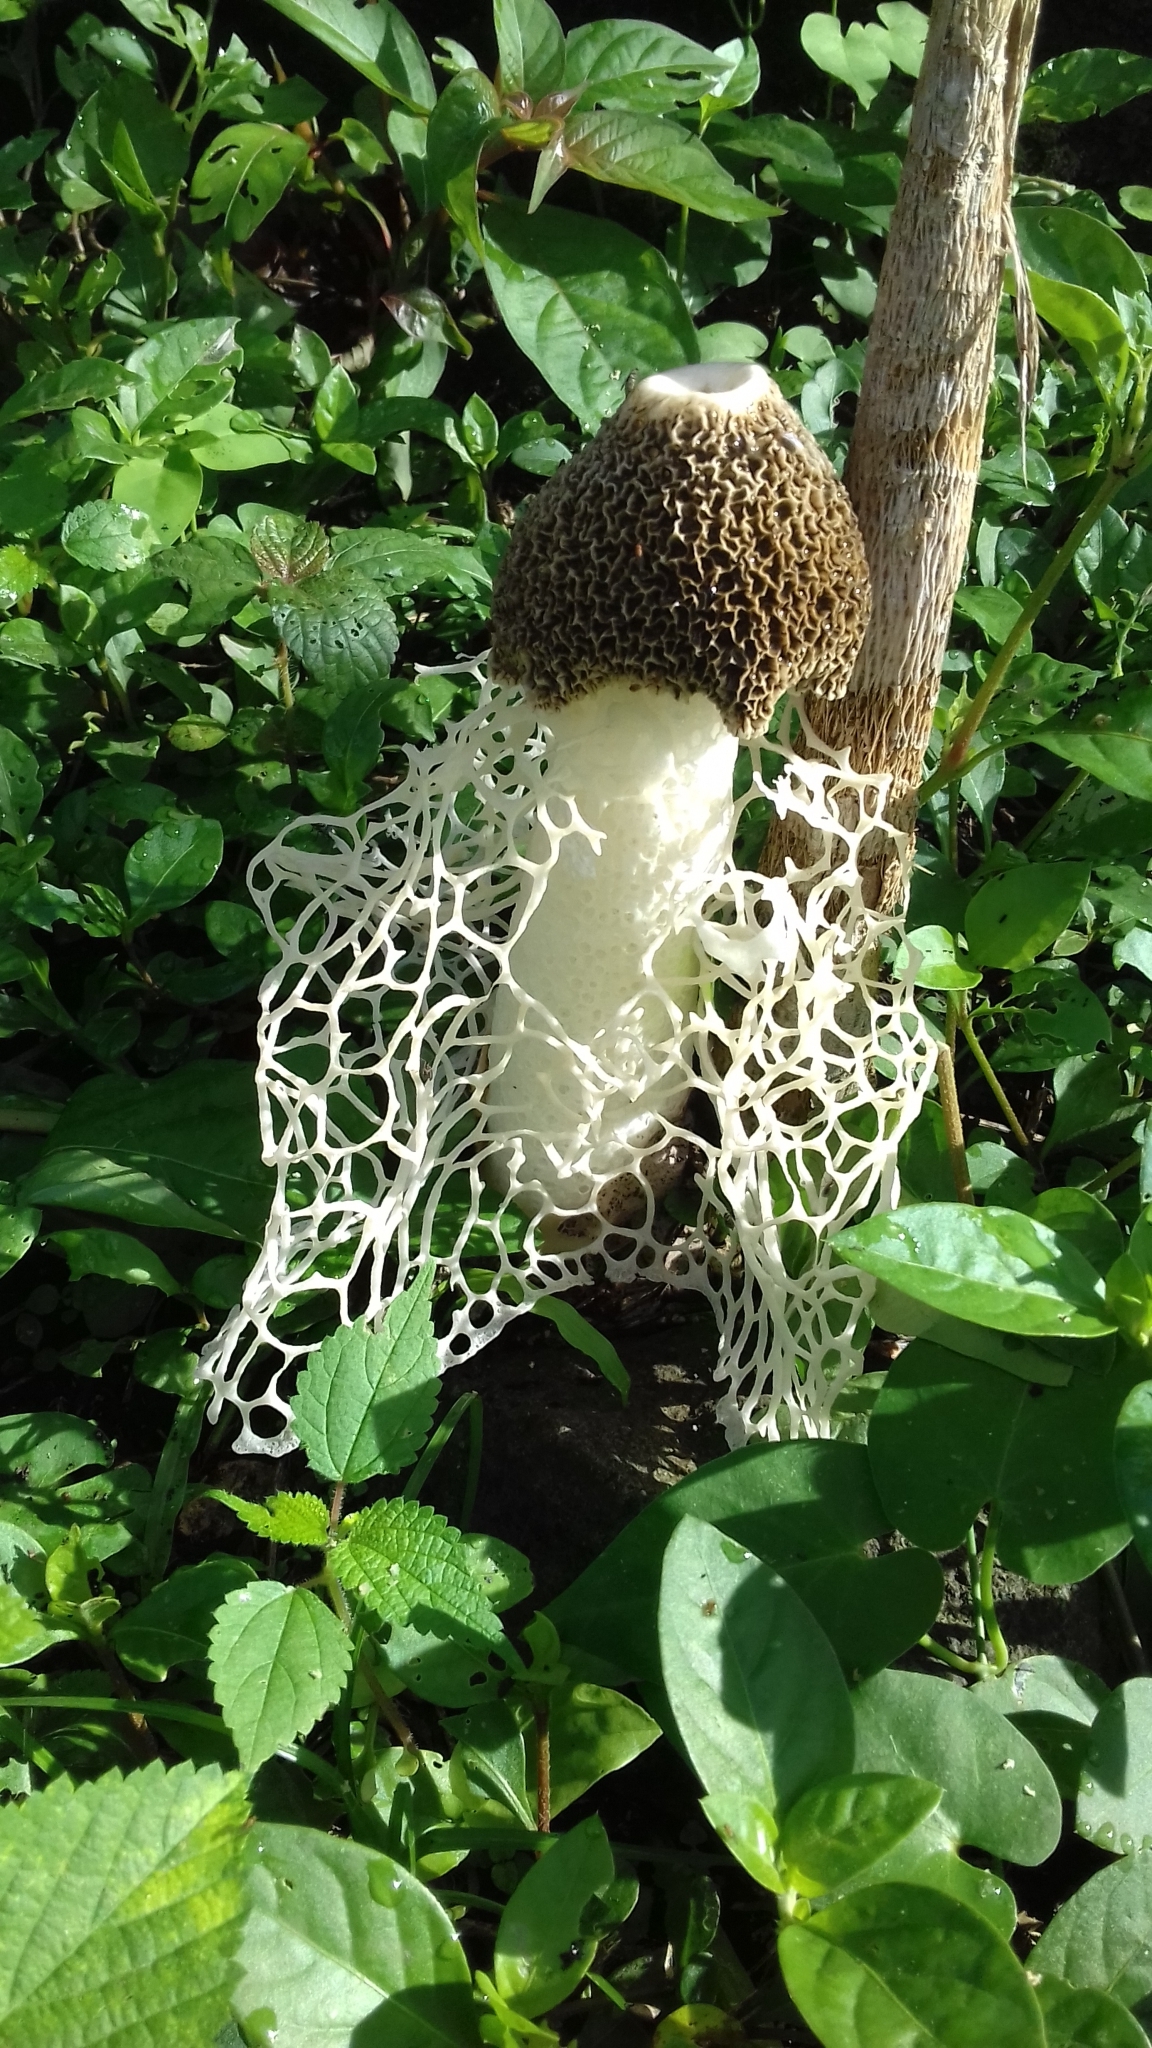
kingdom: Fungi
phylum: Basidiomycota
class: Agaricomycetes
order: Phallales
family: Phallaceae
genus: Phallus
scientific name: Phallus indusiatus
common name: Bridal veil stinkhorn
